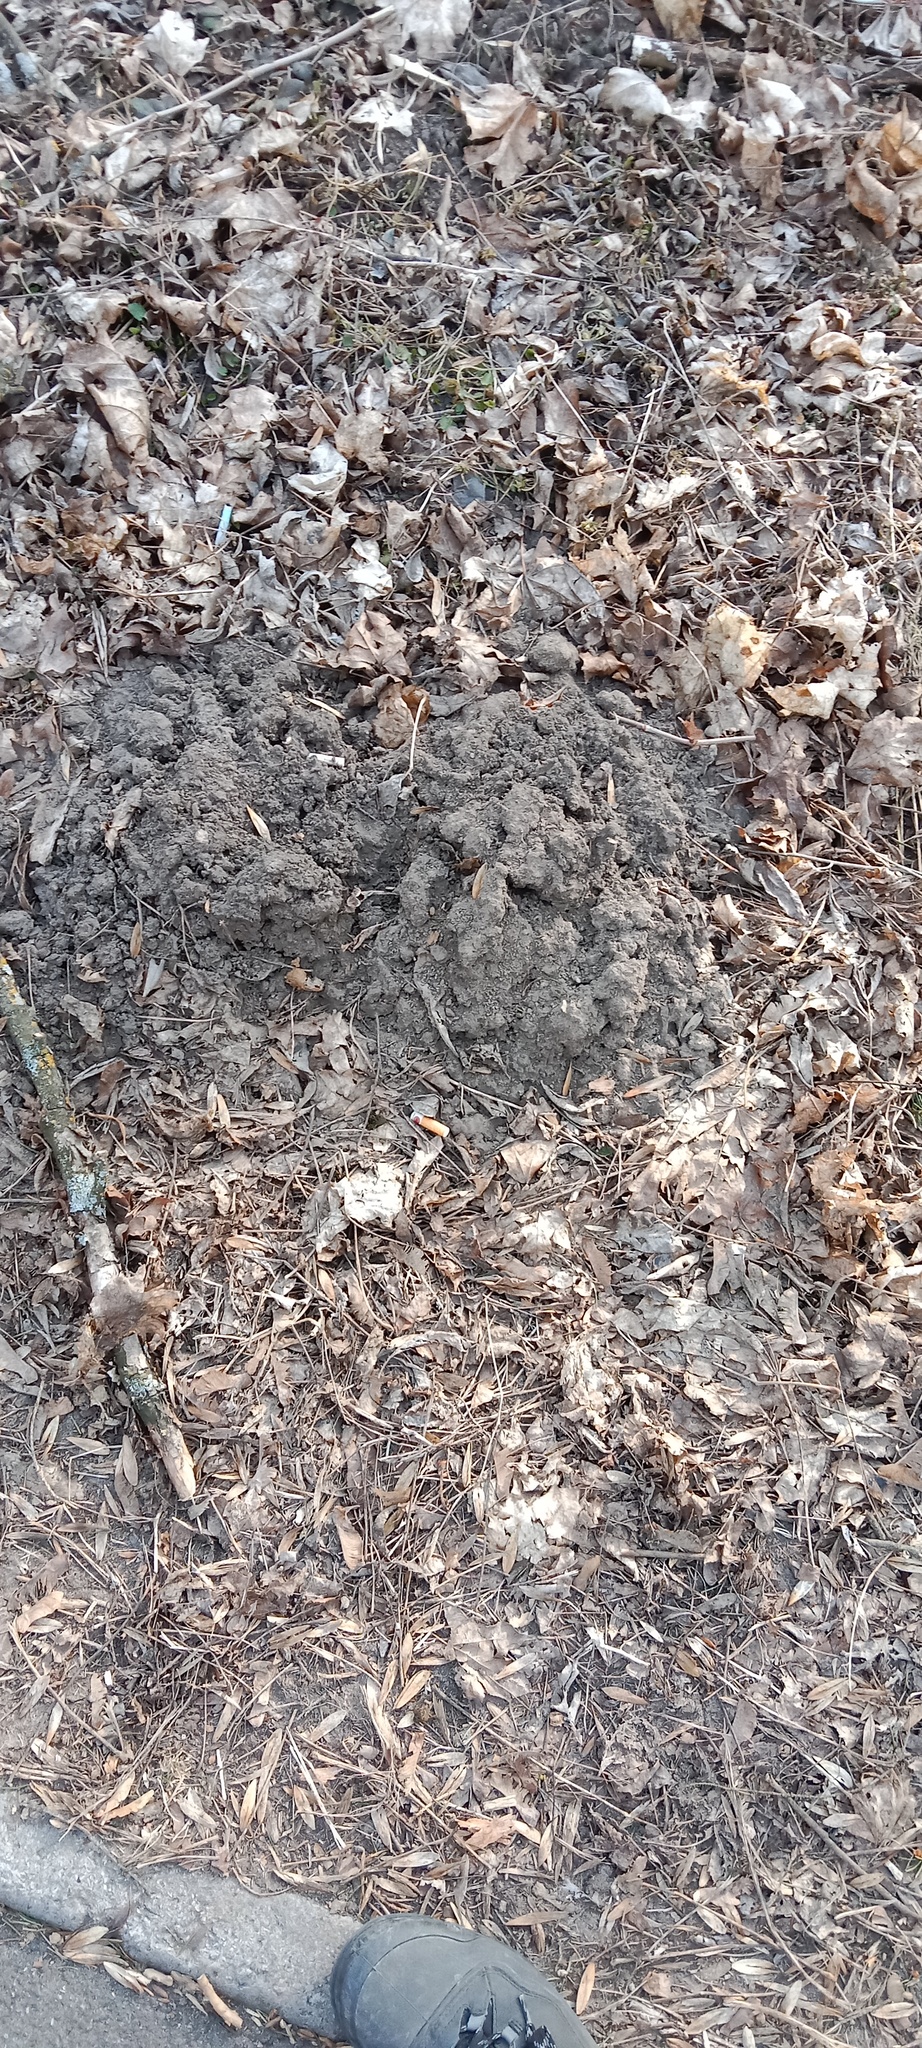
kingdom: Animalia
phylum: Chordata
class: Mammalia
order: Soricomorpha
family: Talpidae
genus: Talpa
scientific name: Talpa europaea
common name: European mole
